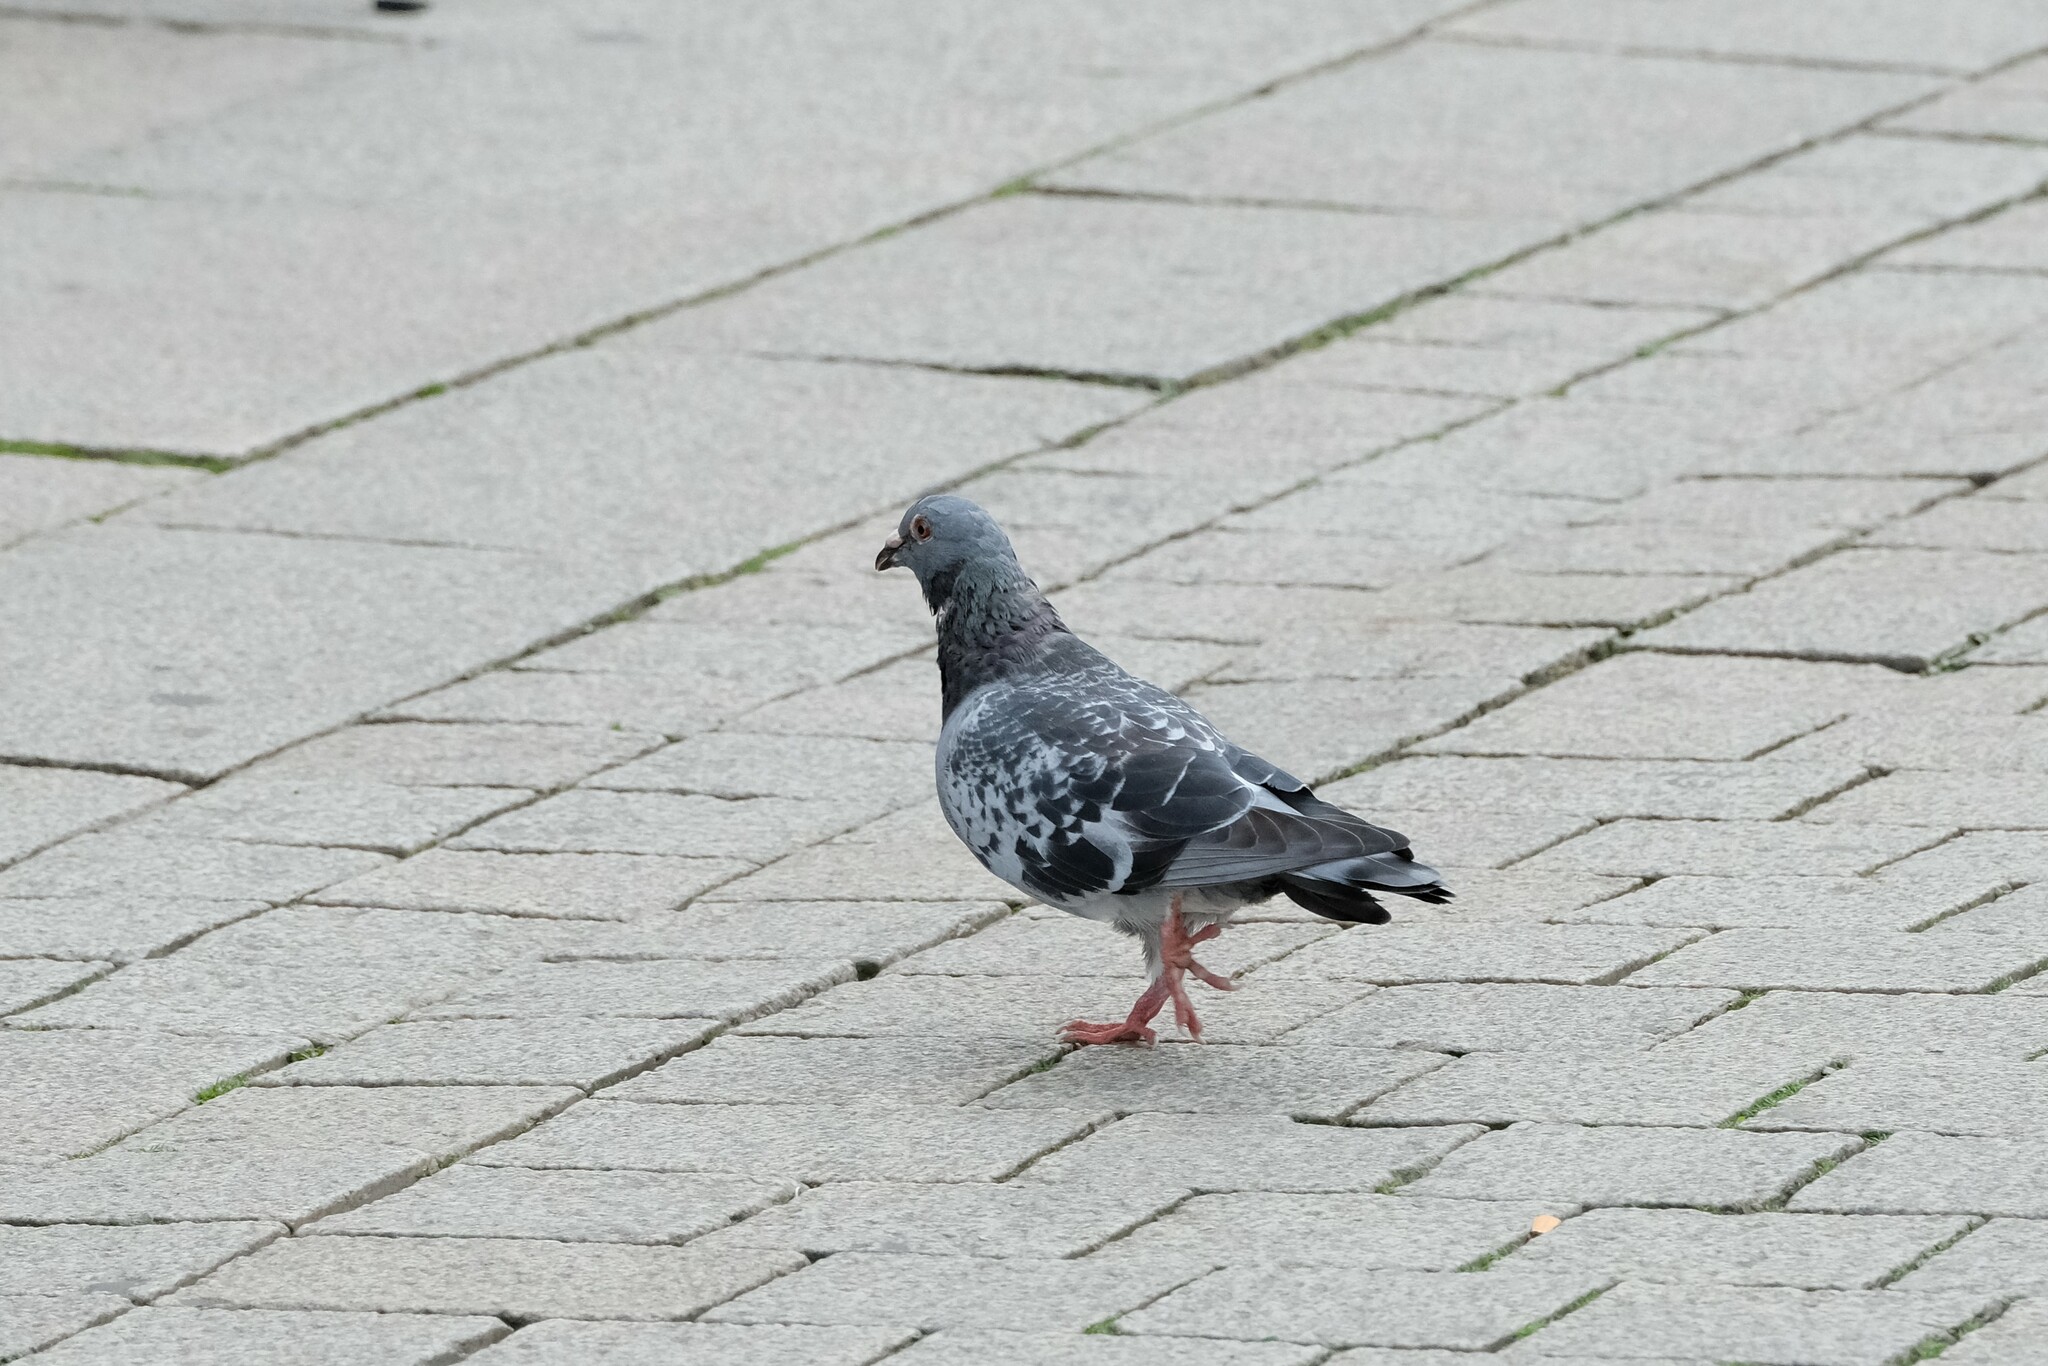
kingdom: Animalia
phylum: Chordata
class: Aves
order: Columbiformes
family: Columbidae
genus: Columba
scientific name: Columba livia
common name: Rock pigeon
